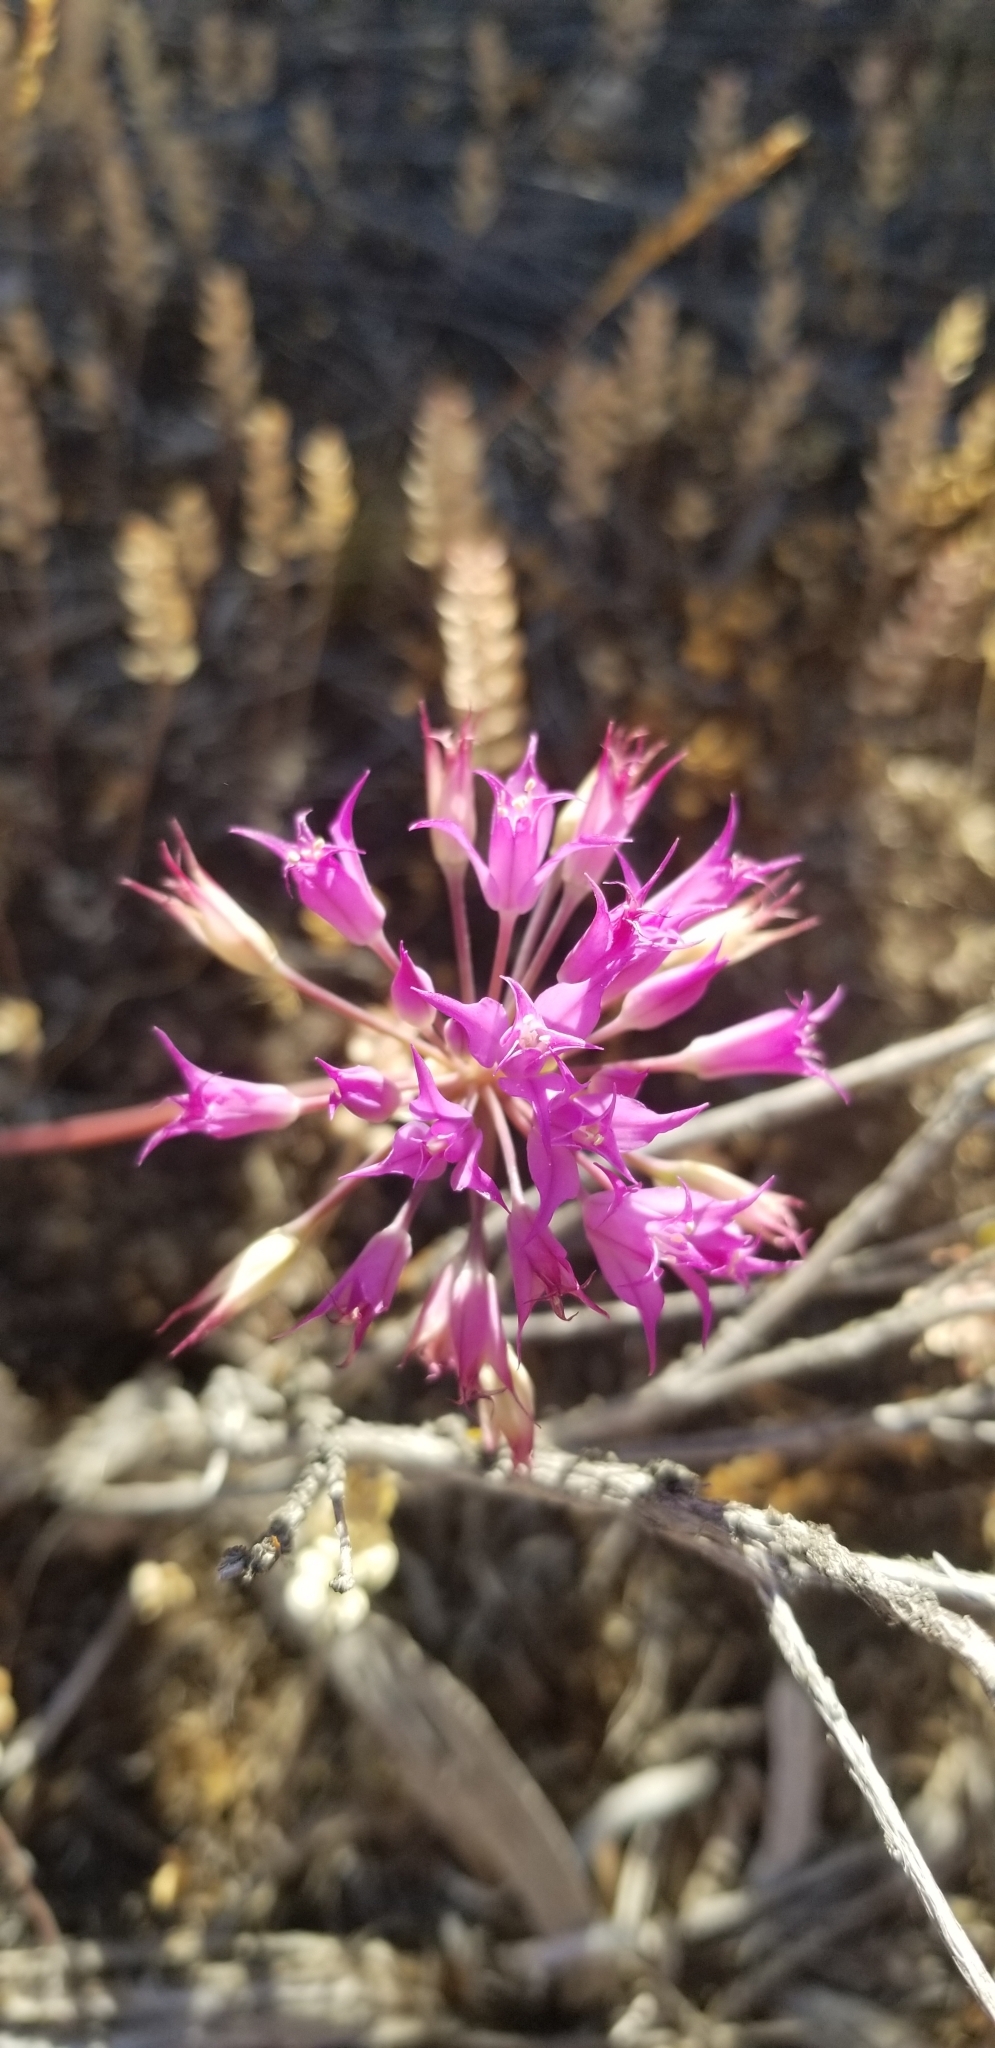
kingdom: Plantae
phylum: Tracheophyta
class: Liliopsida
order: Asparagales
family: Amaryllidaceae
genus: Allium
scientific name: Allium acuminatum
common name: Hooker's onion
